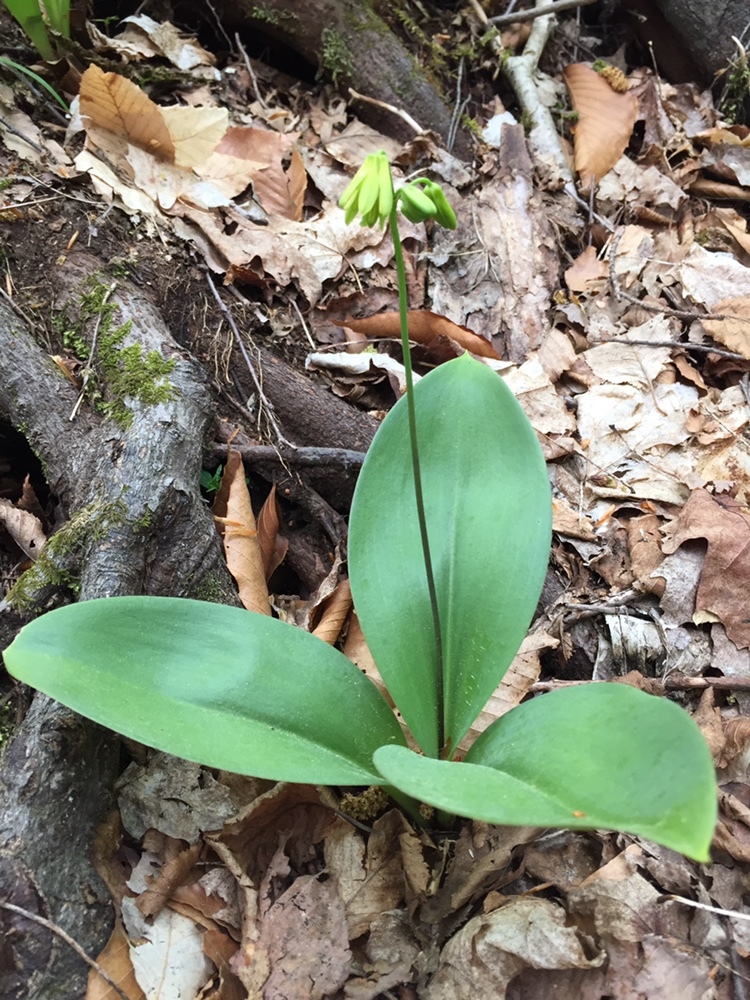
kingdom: Plantae
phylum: Tracheophyta
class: Liliopsida
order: Liliales
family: Liliaceae
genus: Clintonia
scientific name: Clintonia borealis
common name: Yellow clintonia
